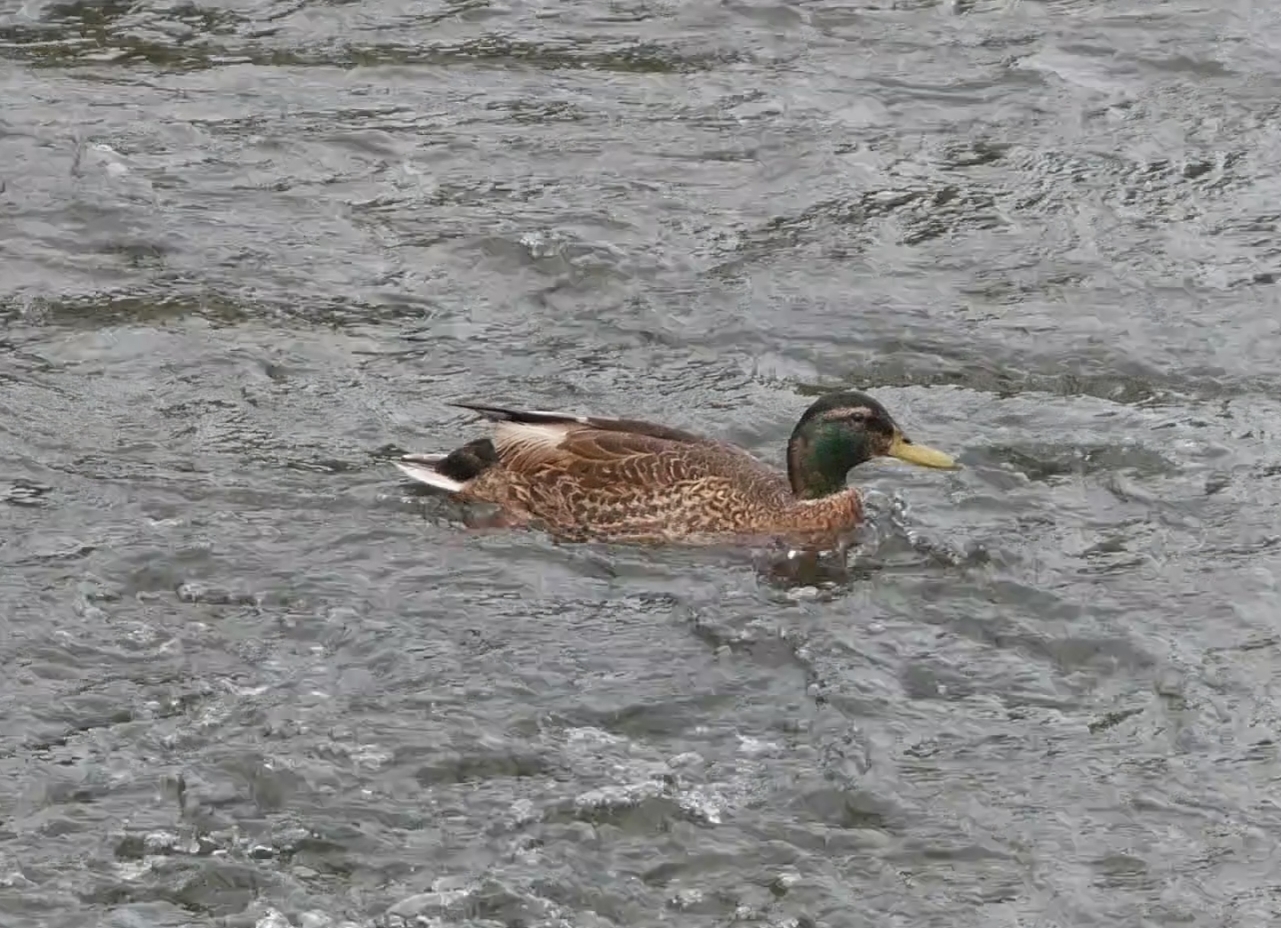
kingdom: Animalia
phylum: Chordata
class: Aves
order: Anseriformes
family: Anatidae
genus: Anas
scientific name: Anas platyrhynchos
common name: Mallard
